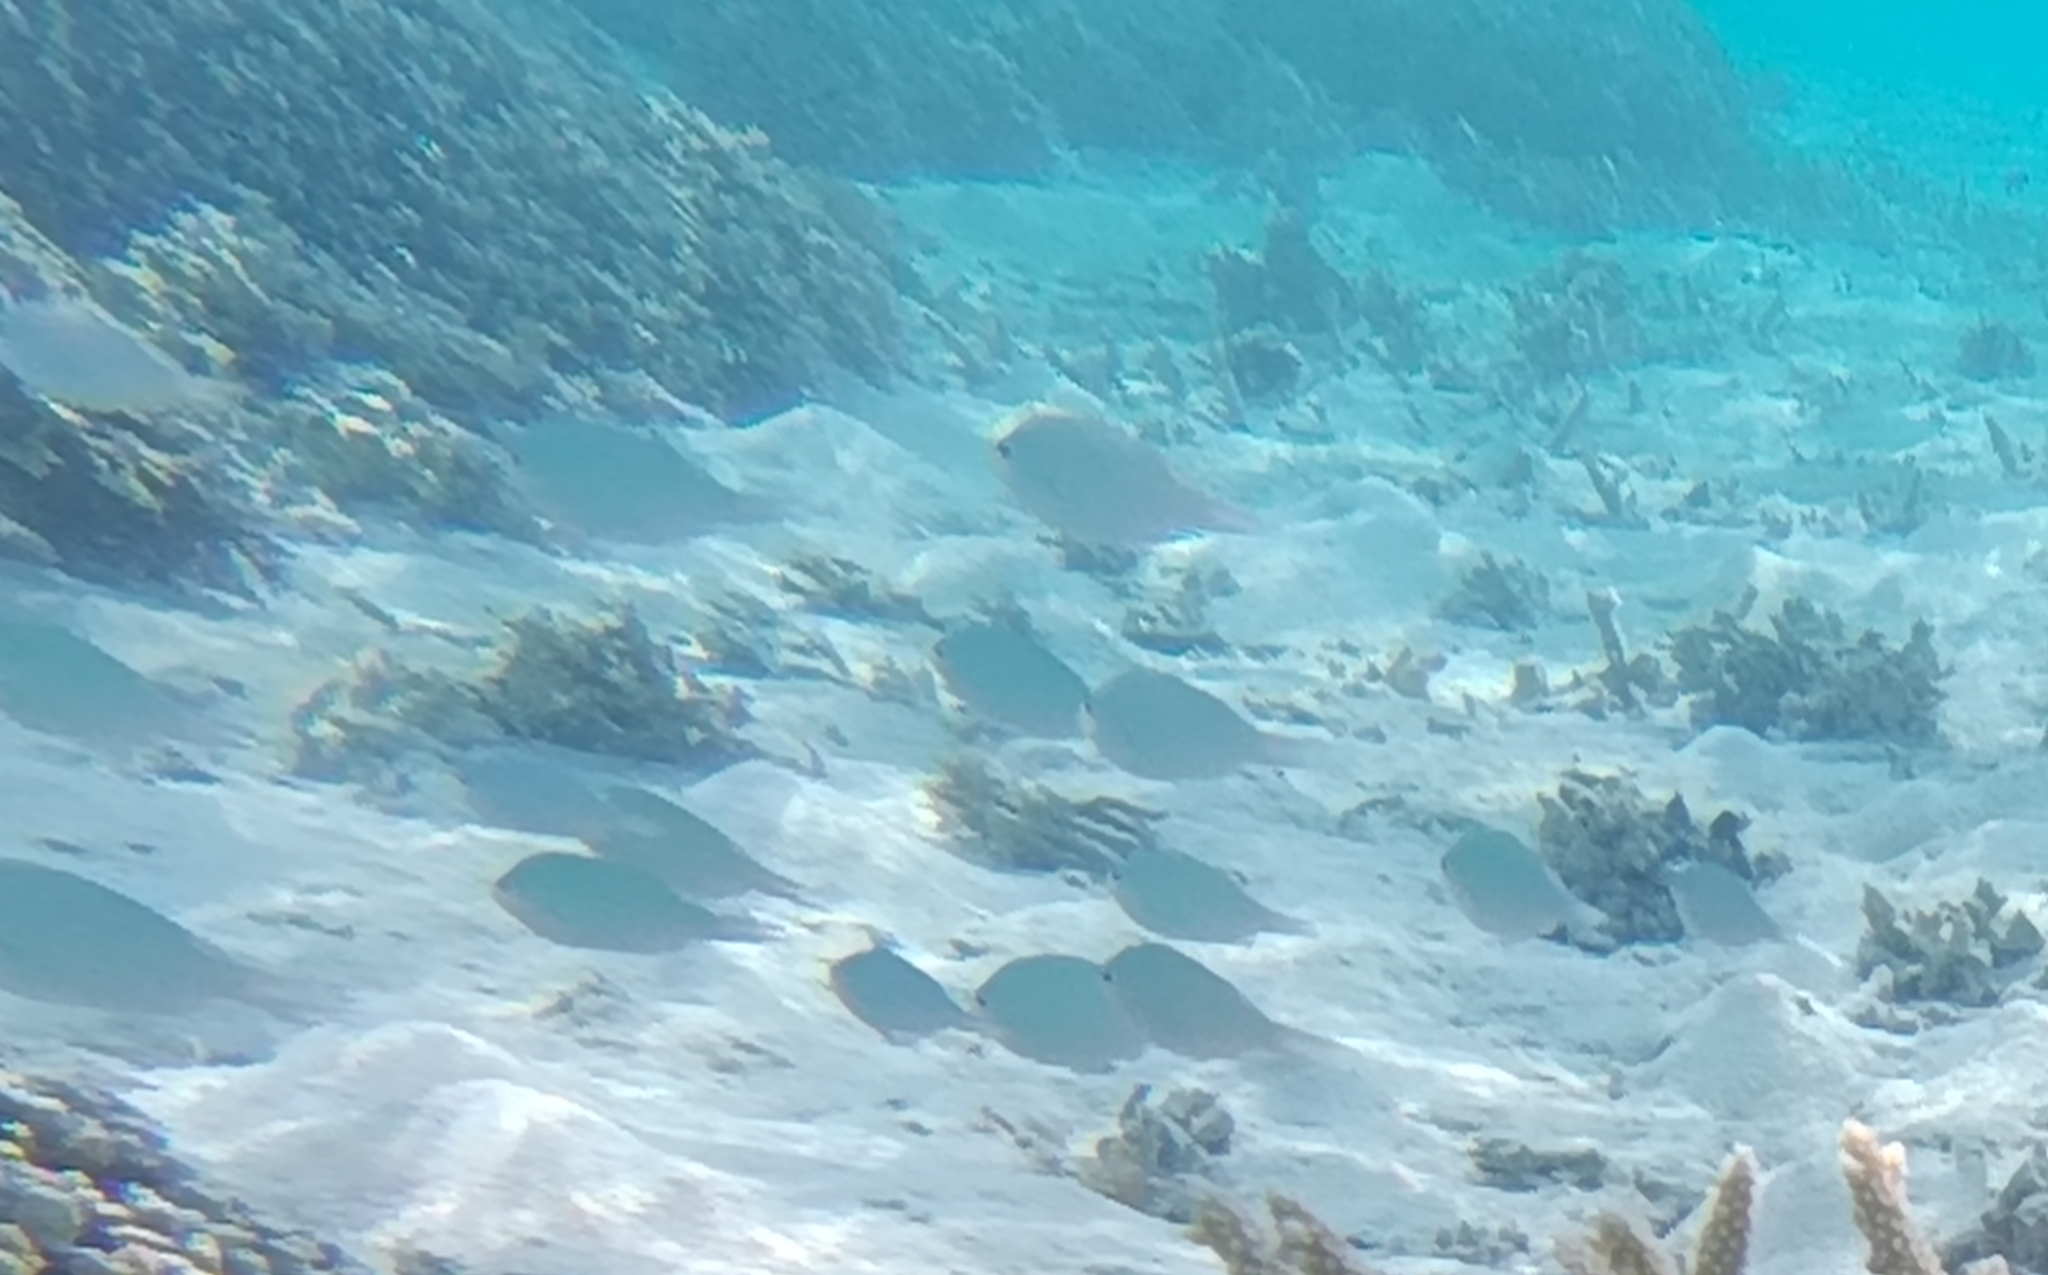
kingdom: Animalia
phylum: Chordata
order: Perciformes
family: Pomacentridae
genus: Chromis
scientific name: Chromis viridis
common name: Blue-green chromis
